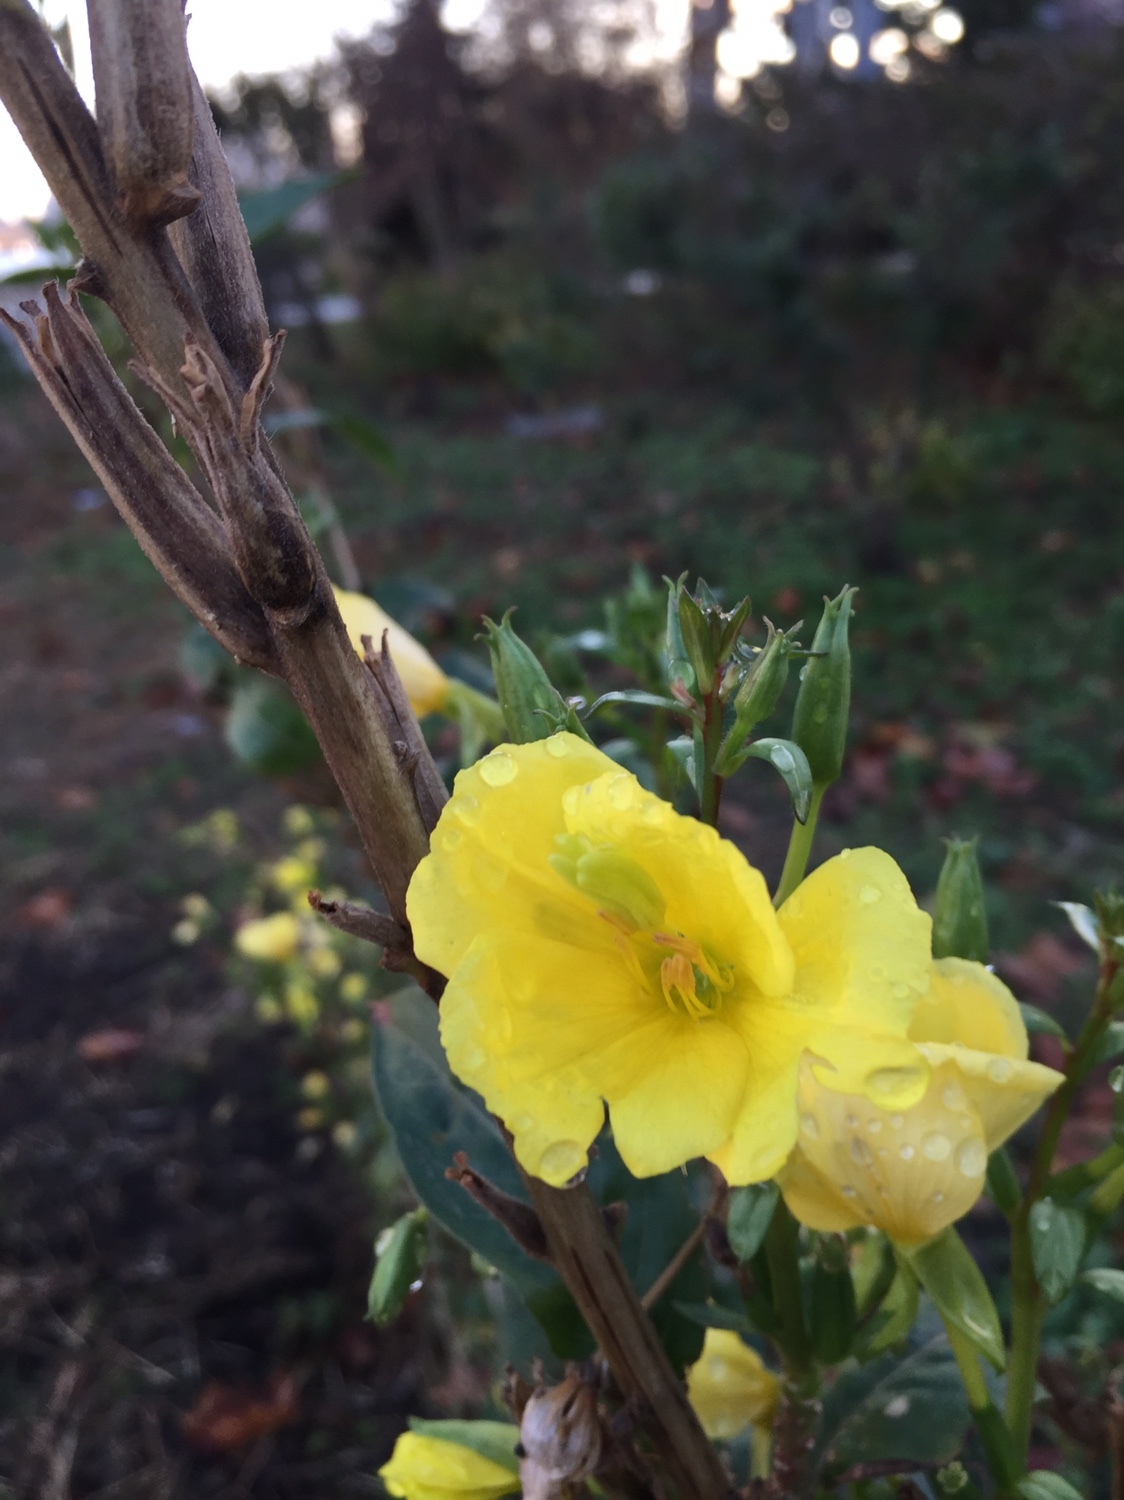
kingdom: Plantae
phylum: Tracheophyta
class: Magnoliopsida
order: Myrtales
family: Onagraceae
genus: Oenothera
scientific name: Oenothera biennis
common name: Common evening-primrose
